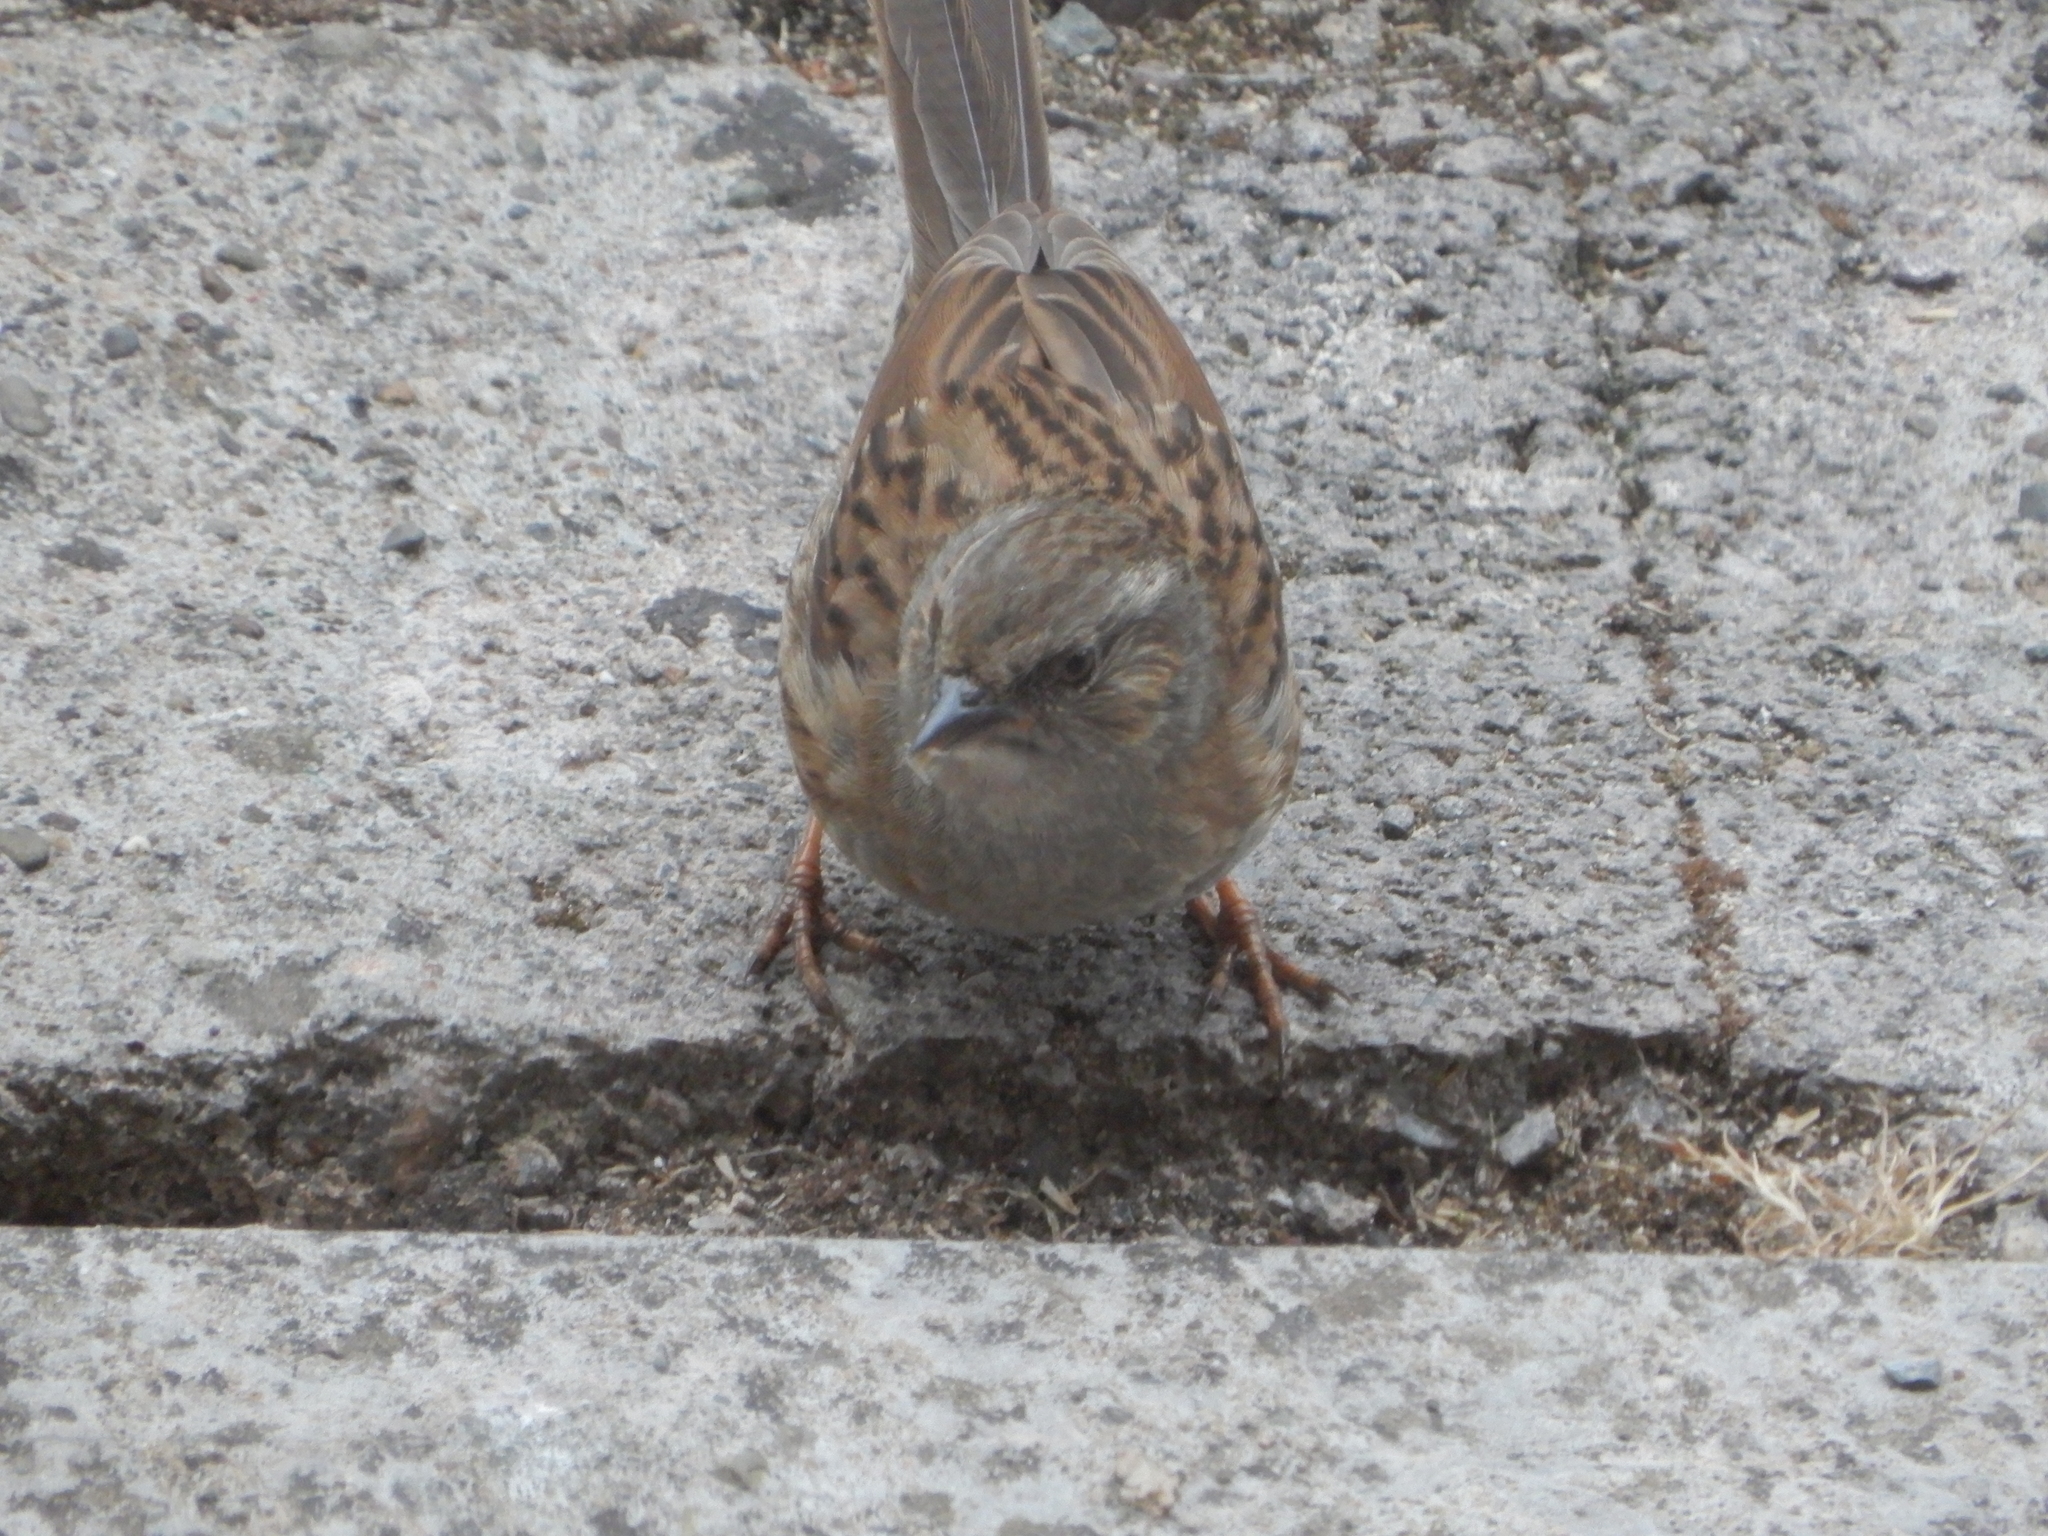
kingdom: Animalia
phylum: Chordata
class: Aves
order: Passeriformes
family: Prunellidae
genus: Prunella
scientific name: Prunella modularis
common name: Dunnock
